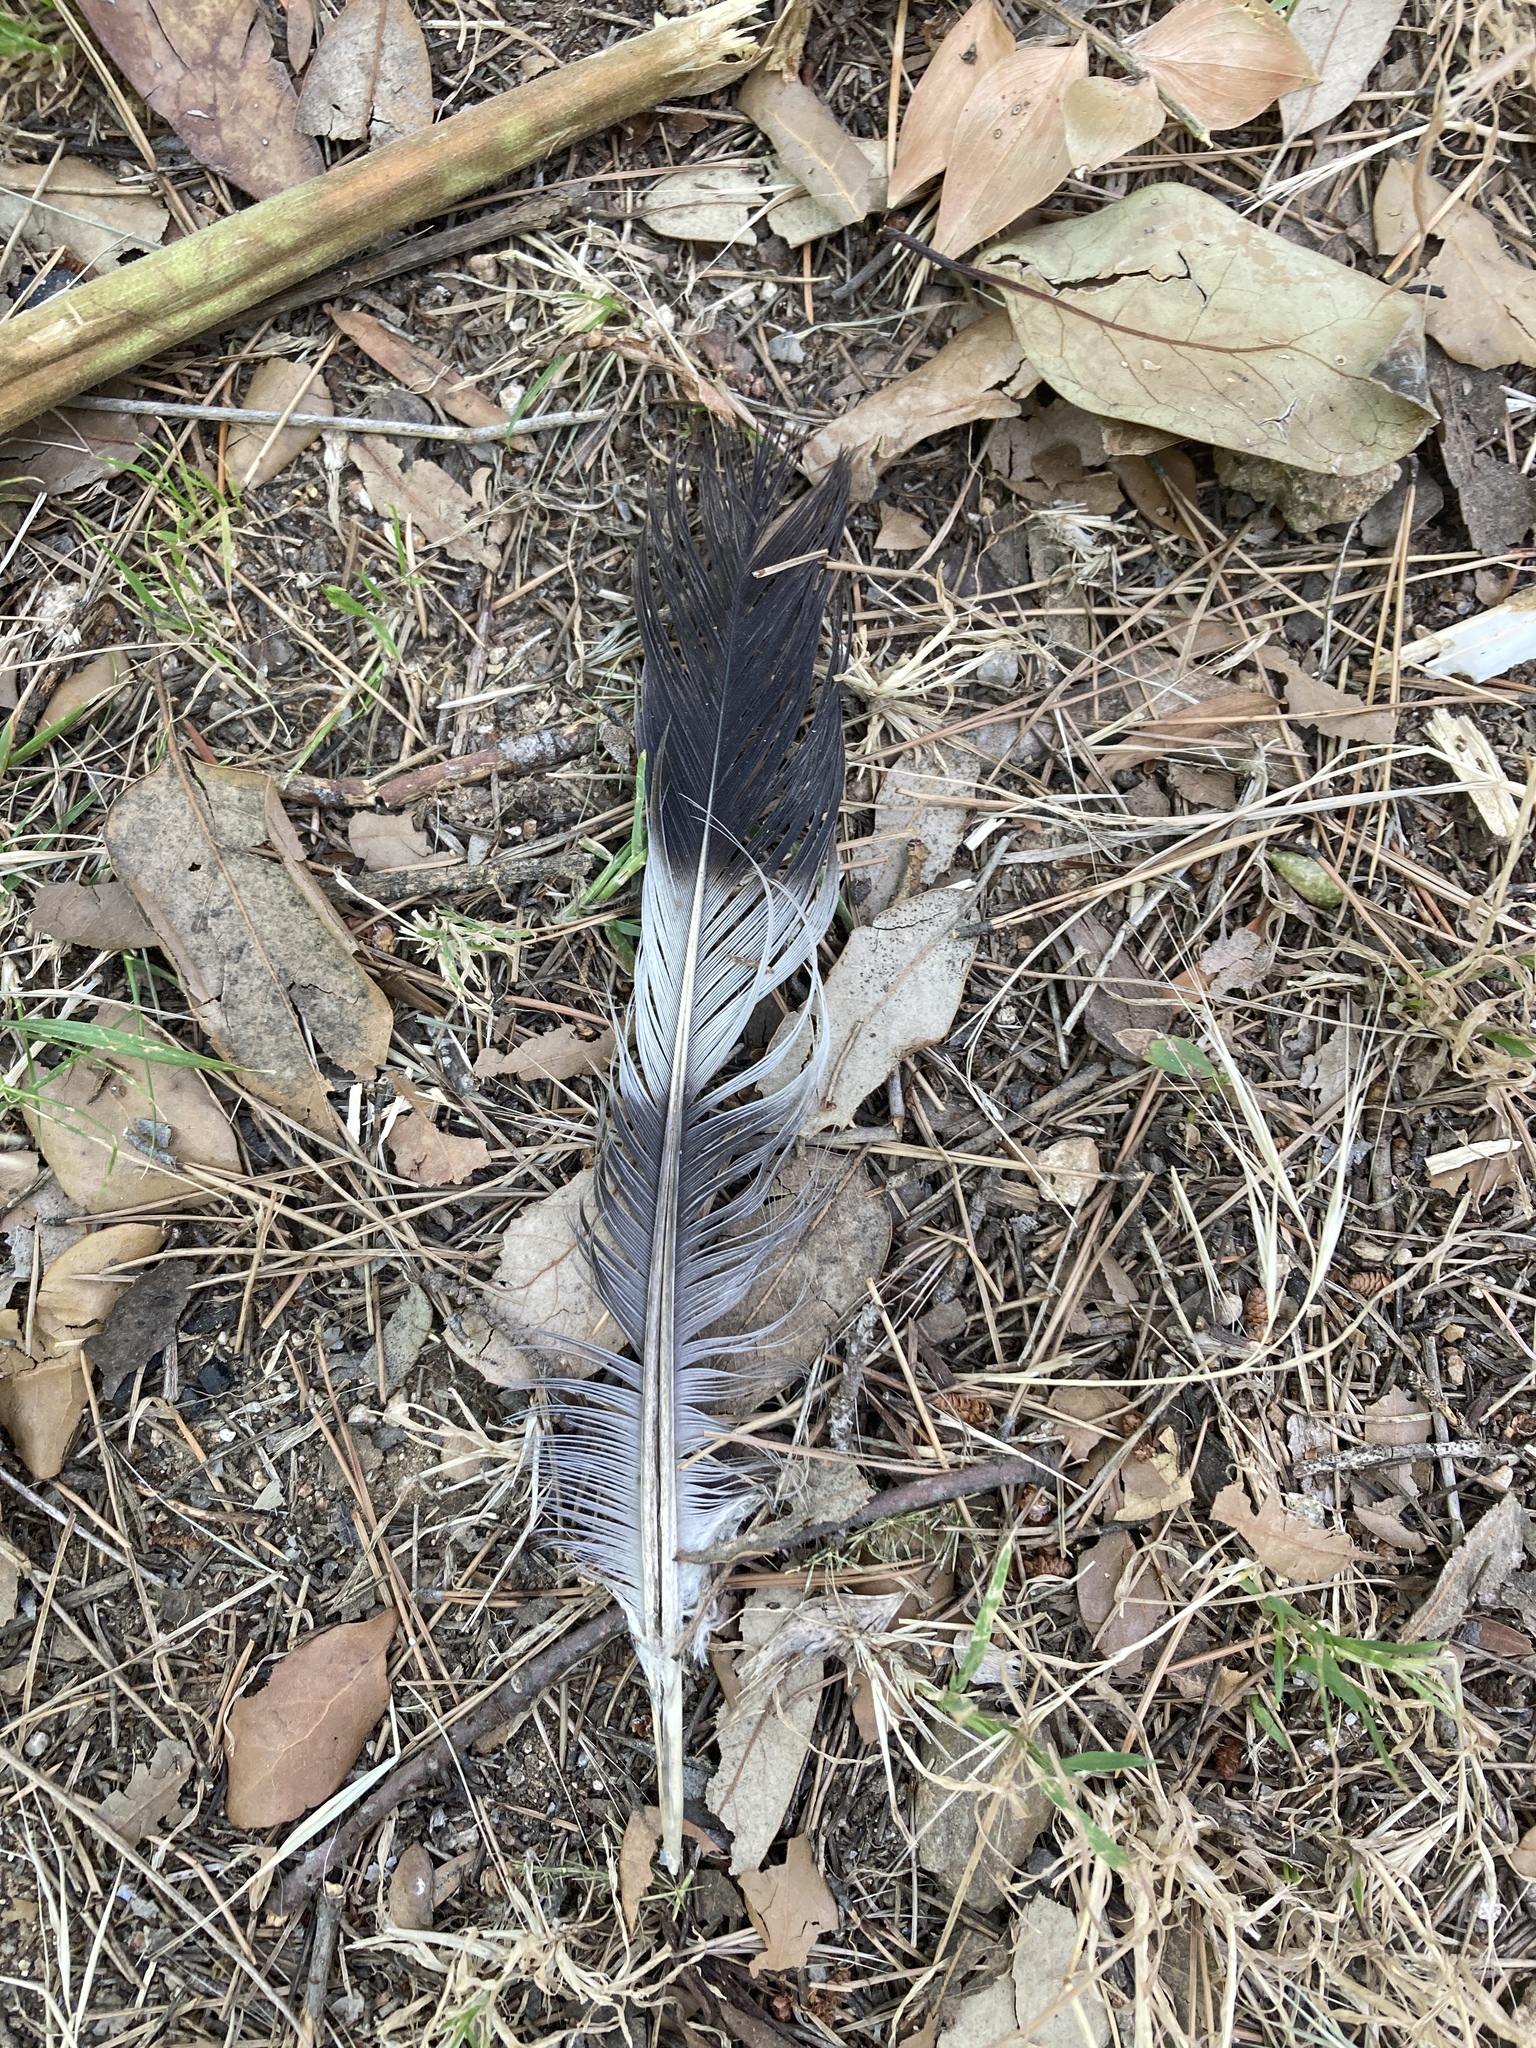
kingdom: Animalia
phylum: Chordata
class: Aves
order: Columbiformes
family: Columbidae
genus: Columba
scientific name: Columba palumbus
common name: Common wood pigeon
